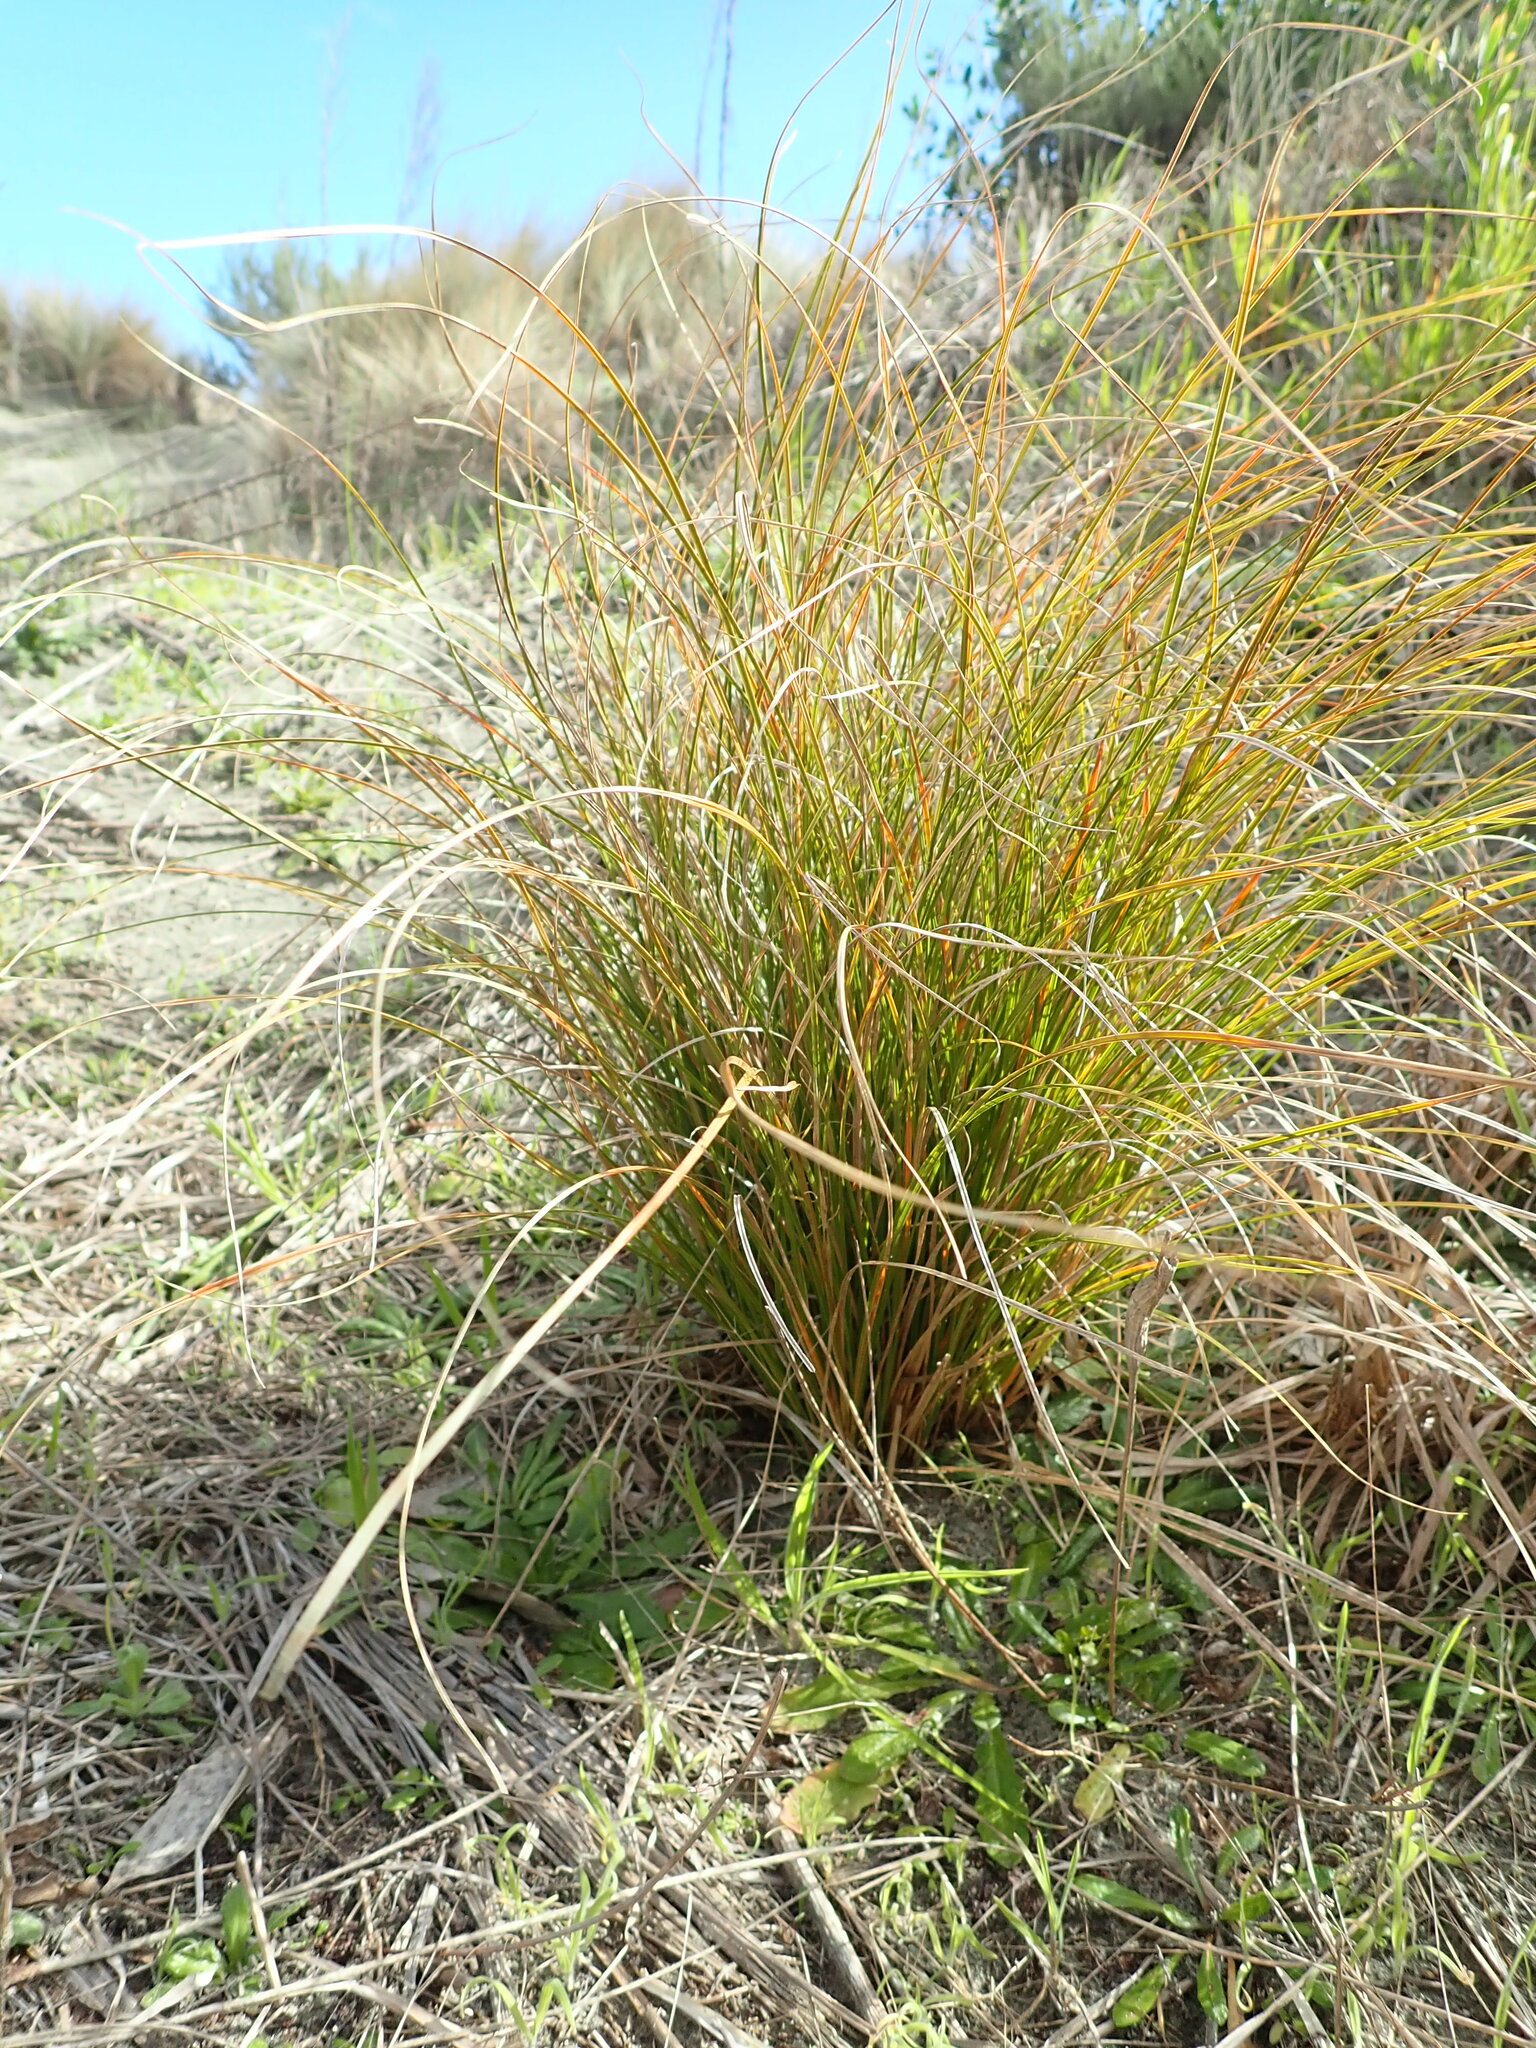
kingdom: Plantae
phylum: Tracheophyta
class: Liliopsida
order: Poales
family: Cyperaceae
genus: Carex
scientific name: Carex testacea
